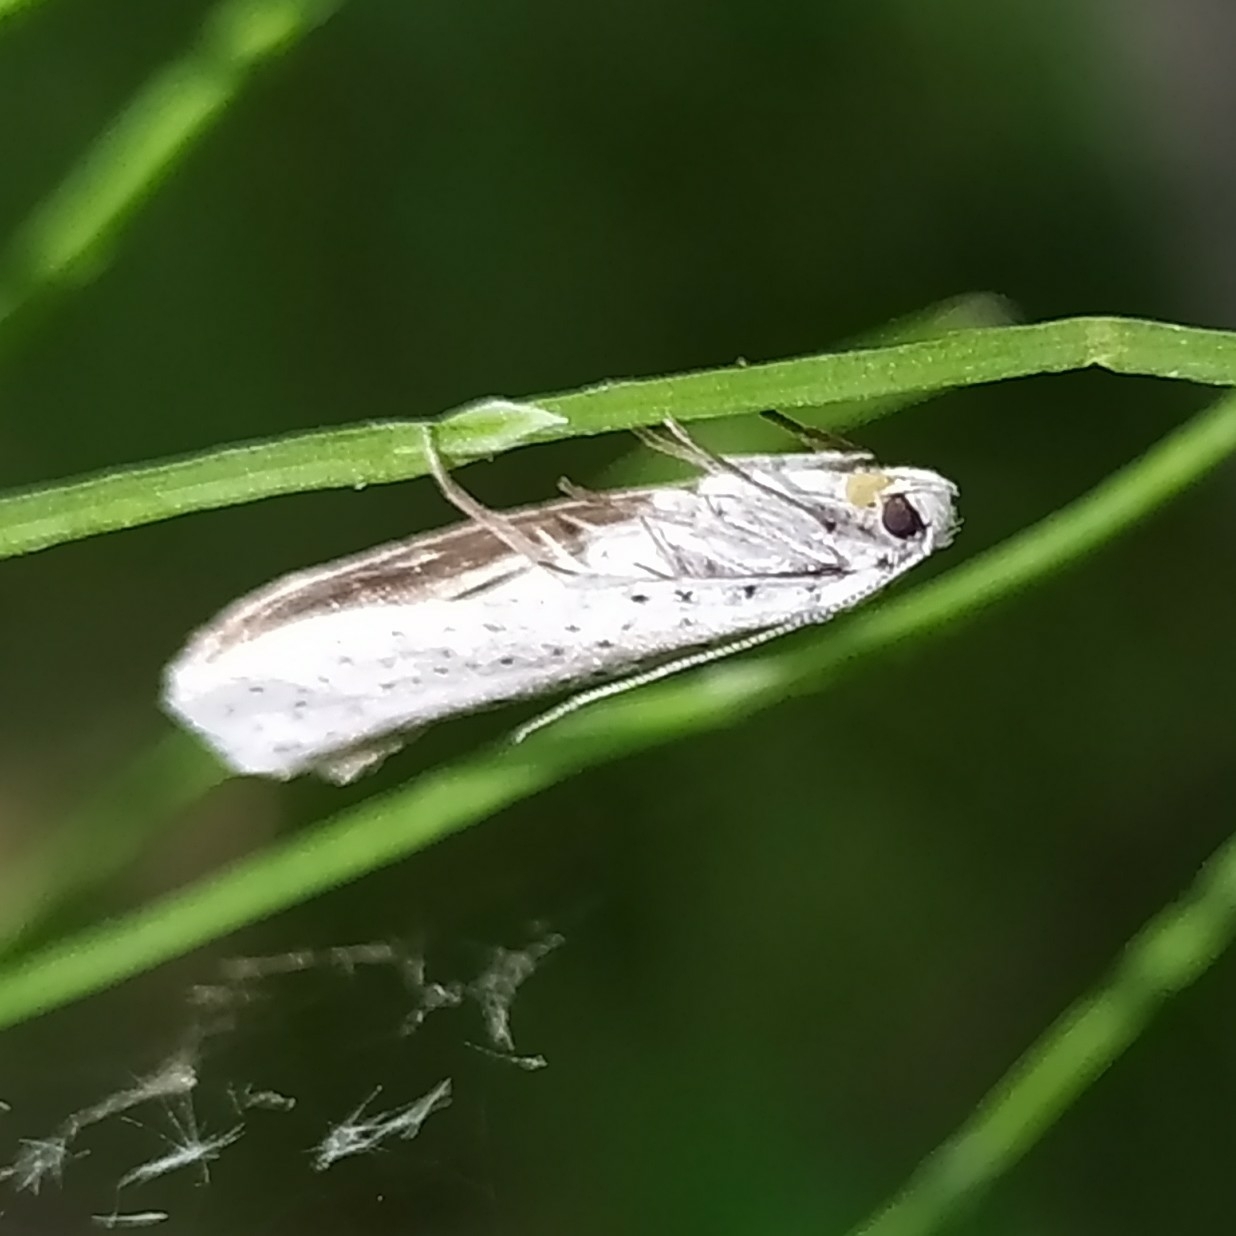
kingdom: Animalia
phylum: Arthropoda
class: Insecta
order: Lepidoptera
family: Yponomeutidae
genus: Yponomeuta
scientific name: Yponomeuta evonymella
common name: Bird-cherry ermine
